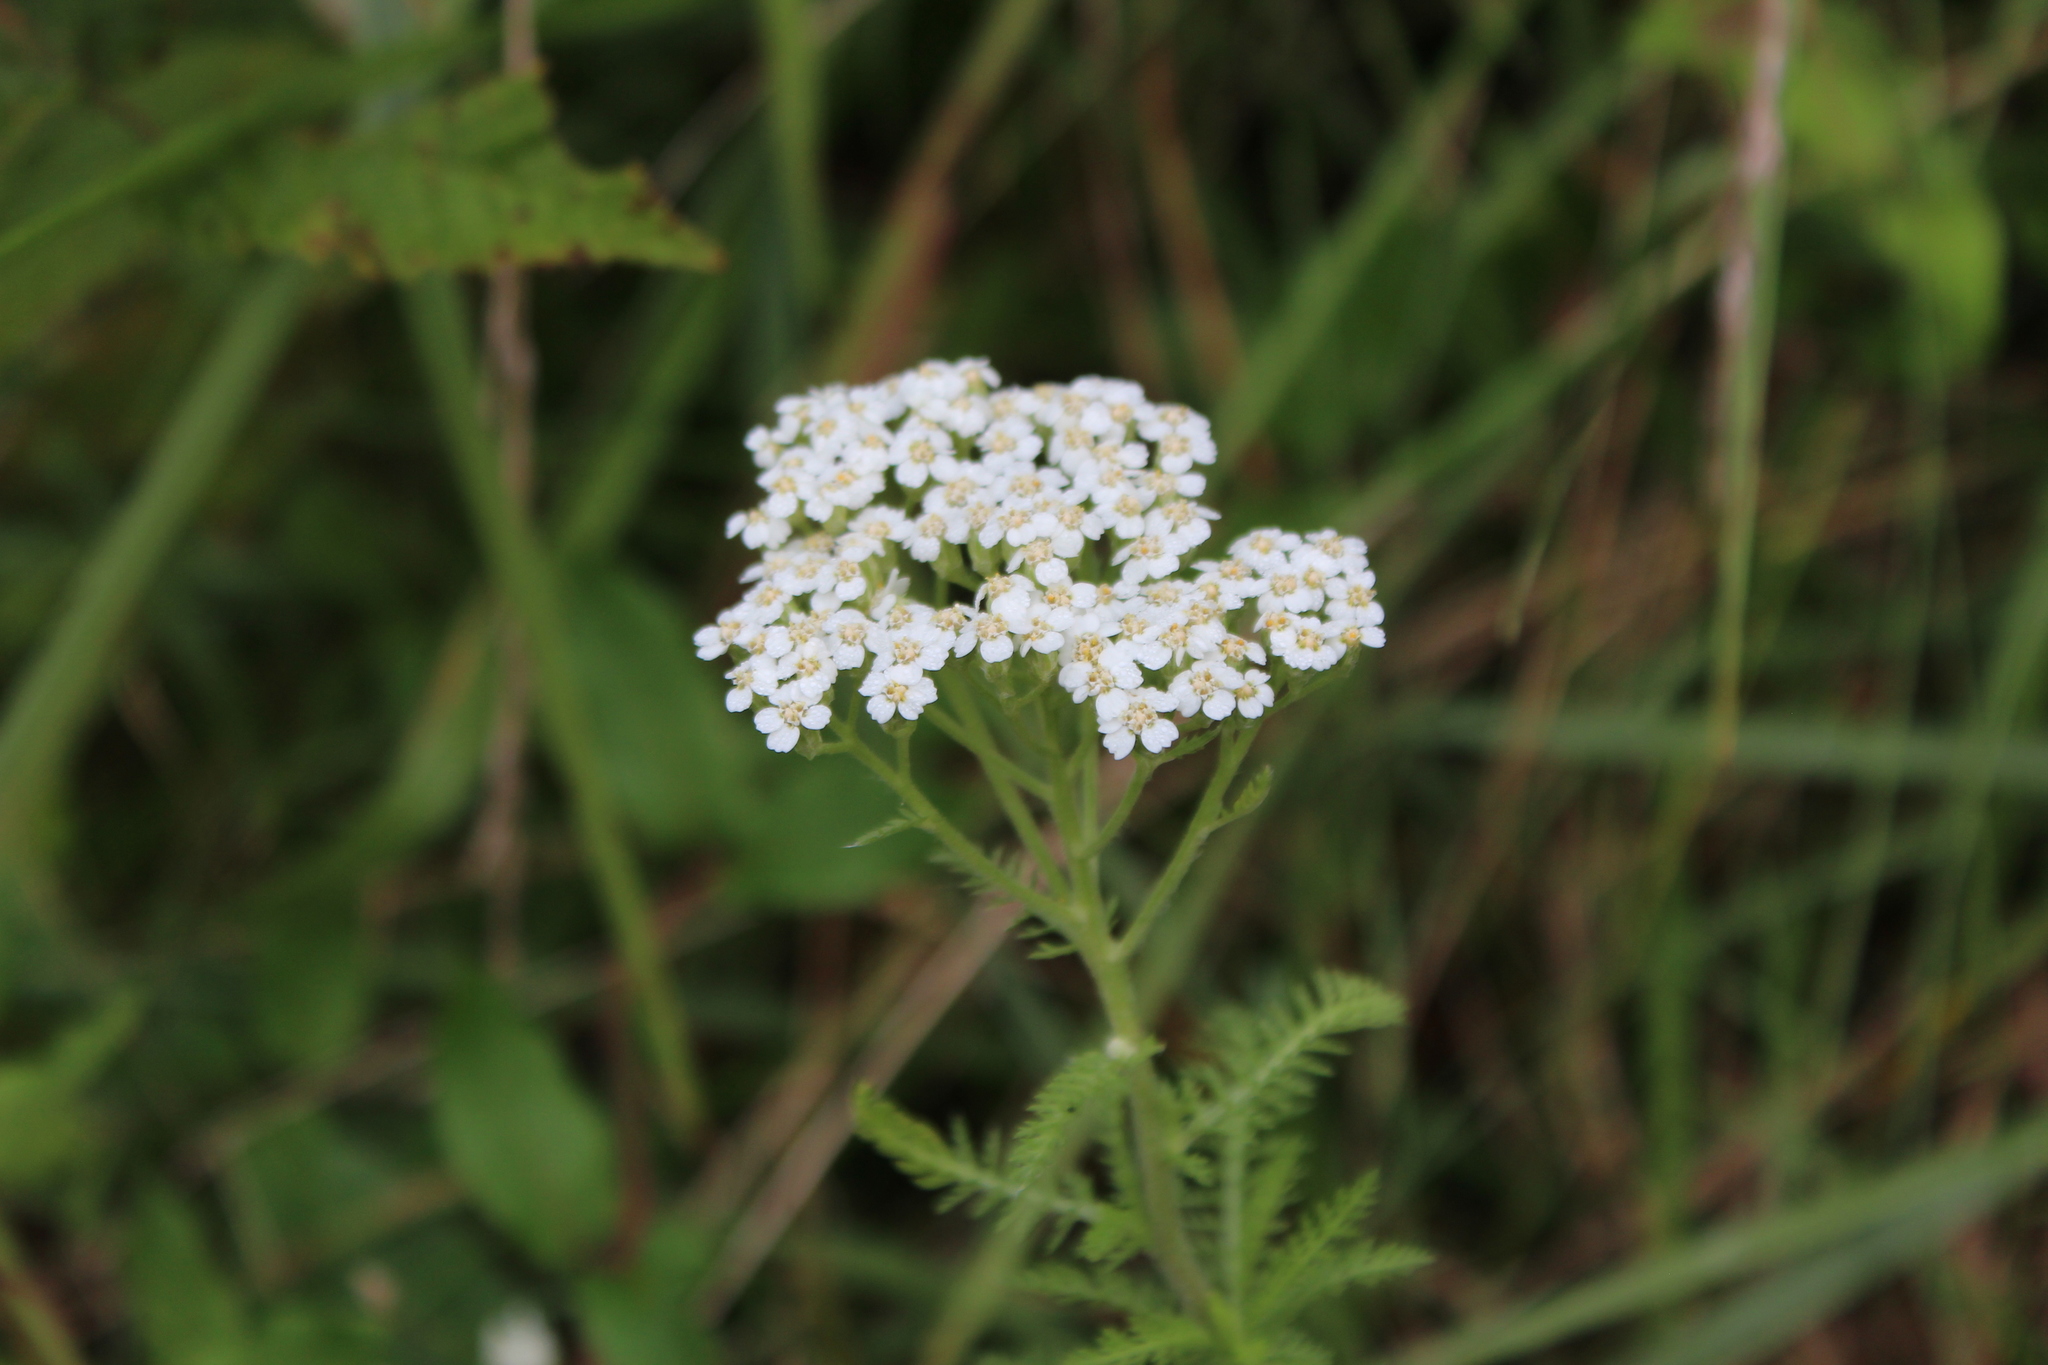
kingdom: Plantae
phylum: Tracheophyta
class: Magnoliopsida
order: Asterales
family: Asteraceae
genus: Achillea
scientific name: Achillea millefolium
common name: Yarrow
